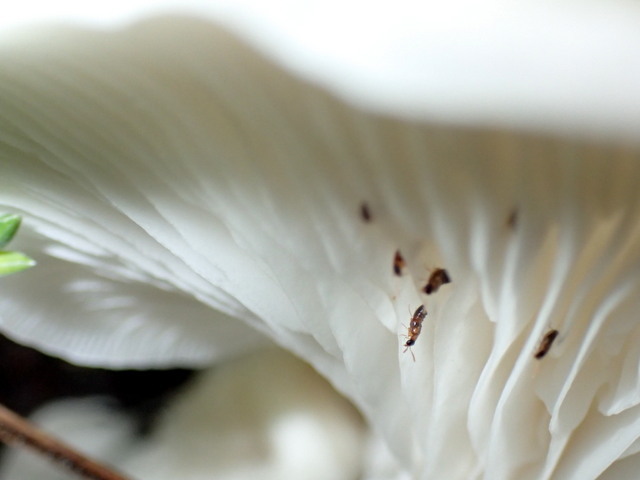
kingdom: Fungi
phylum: Basidiomycota
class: Agaricomycetes
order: Agaricales
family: Pleurotaceae
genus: Pleurotus
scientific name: Pleurotus ostreatus
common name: Oyster mushroom
